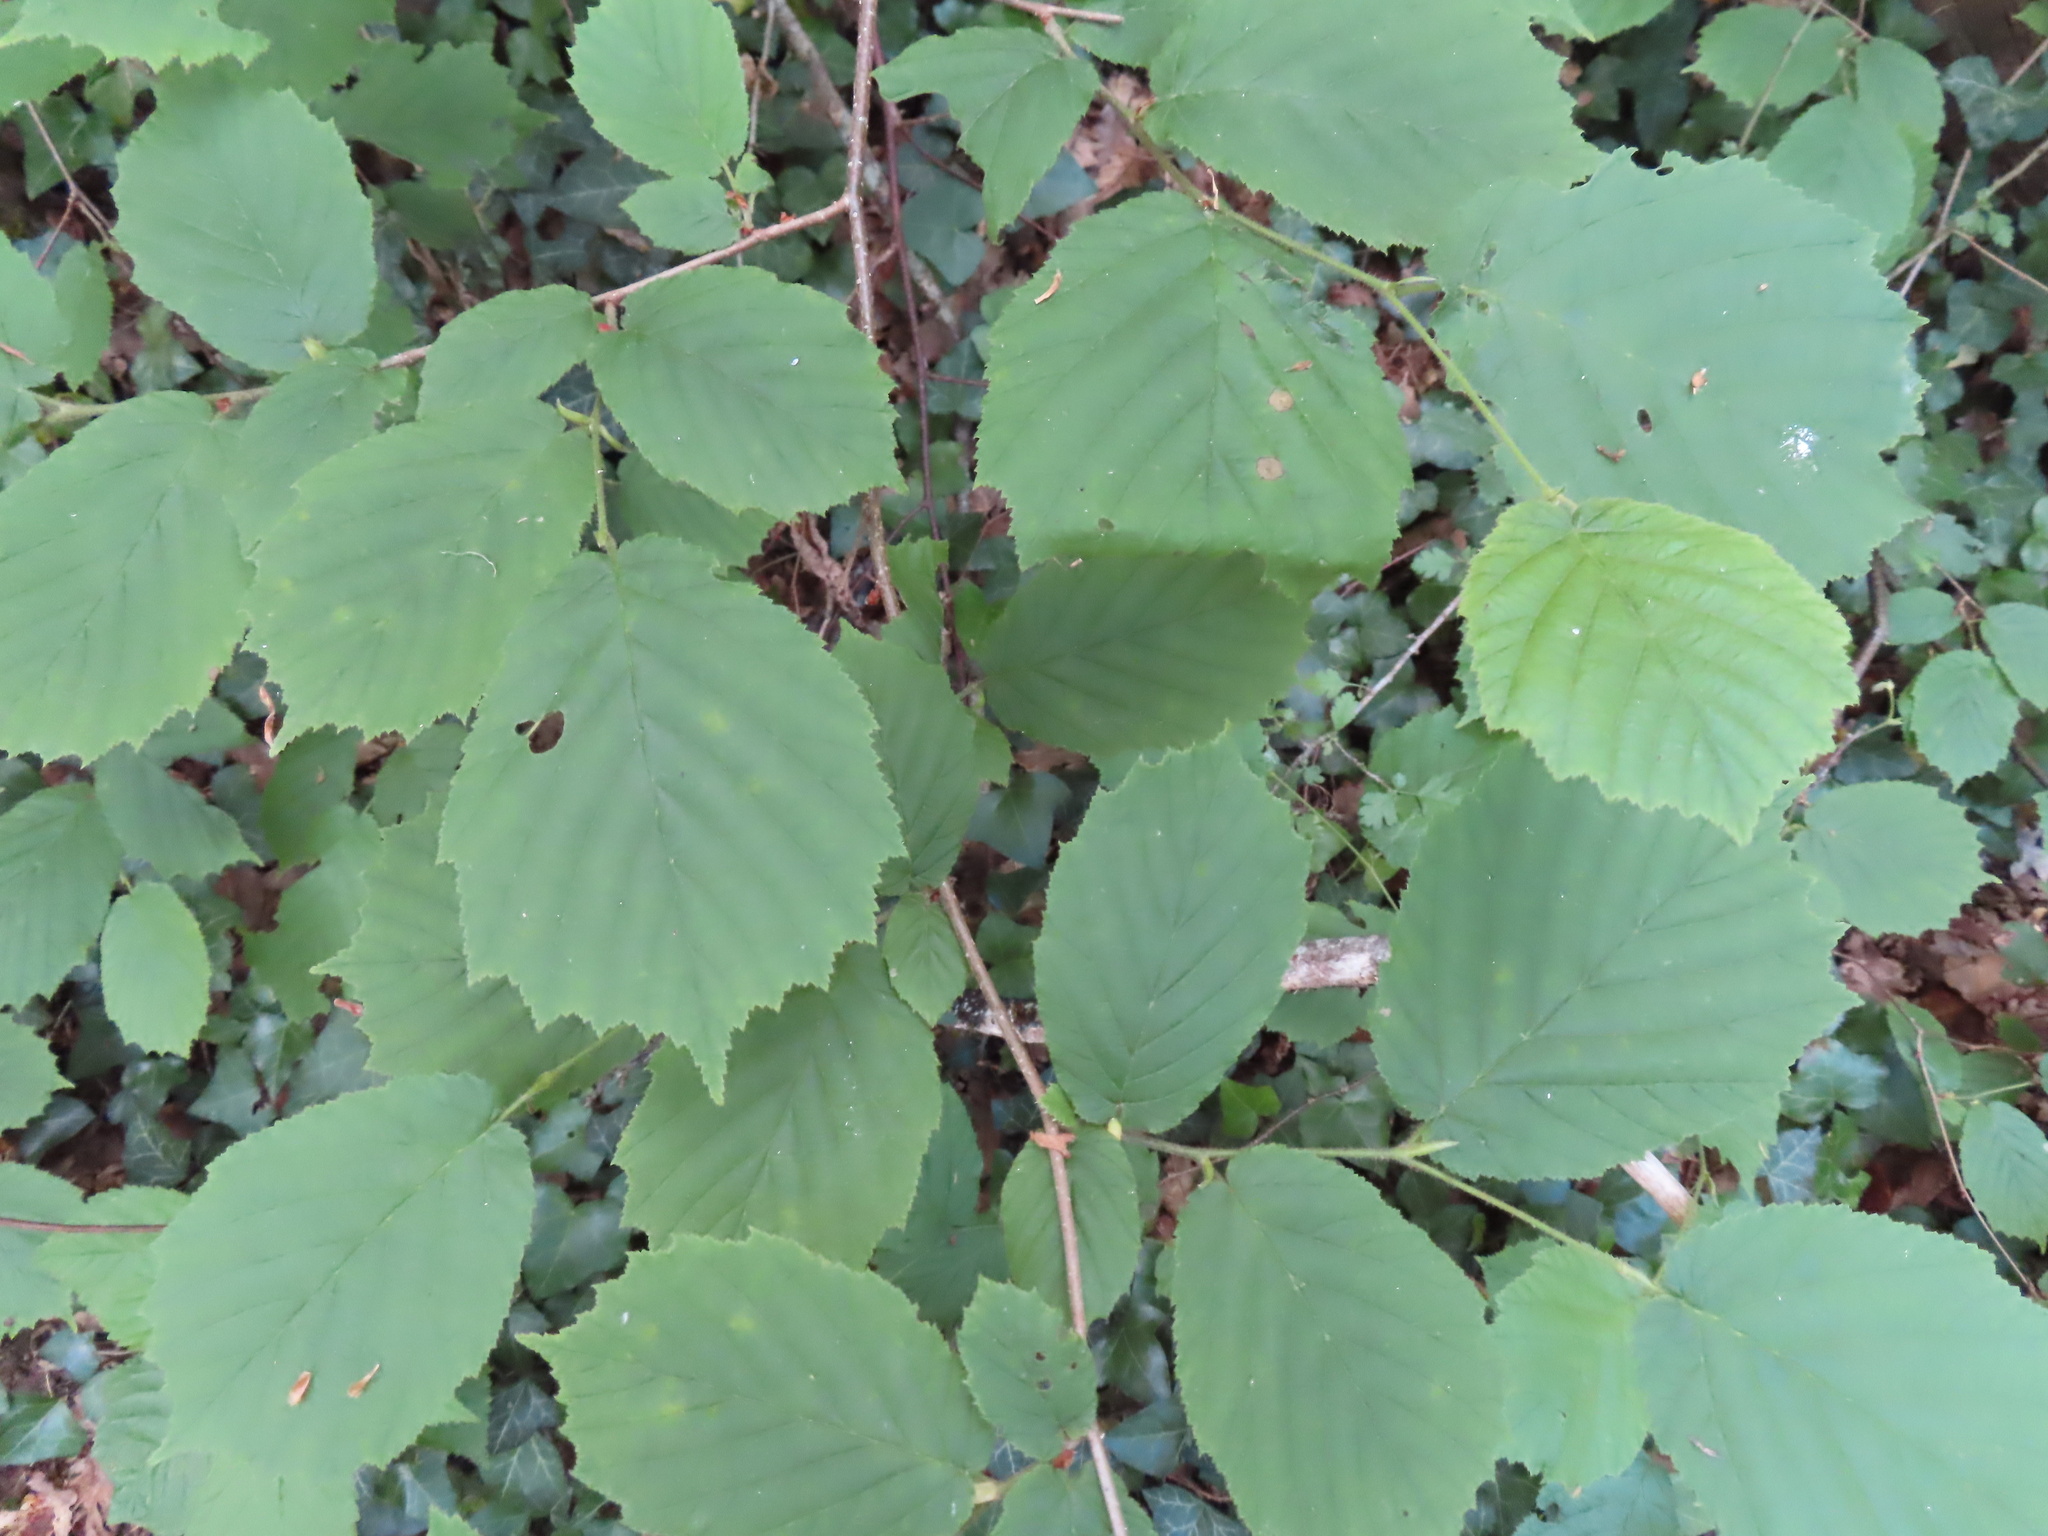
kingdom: Plantae
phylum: Tracheophyta
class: Magnoliopsida
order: Fagales
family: Betulaceae
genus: Corylus
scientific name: Corylus avellana
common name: European hazel
